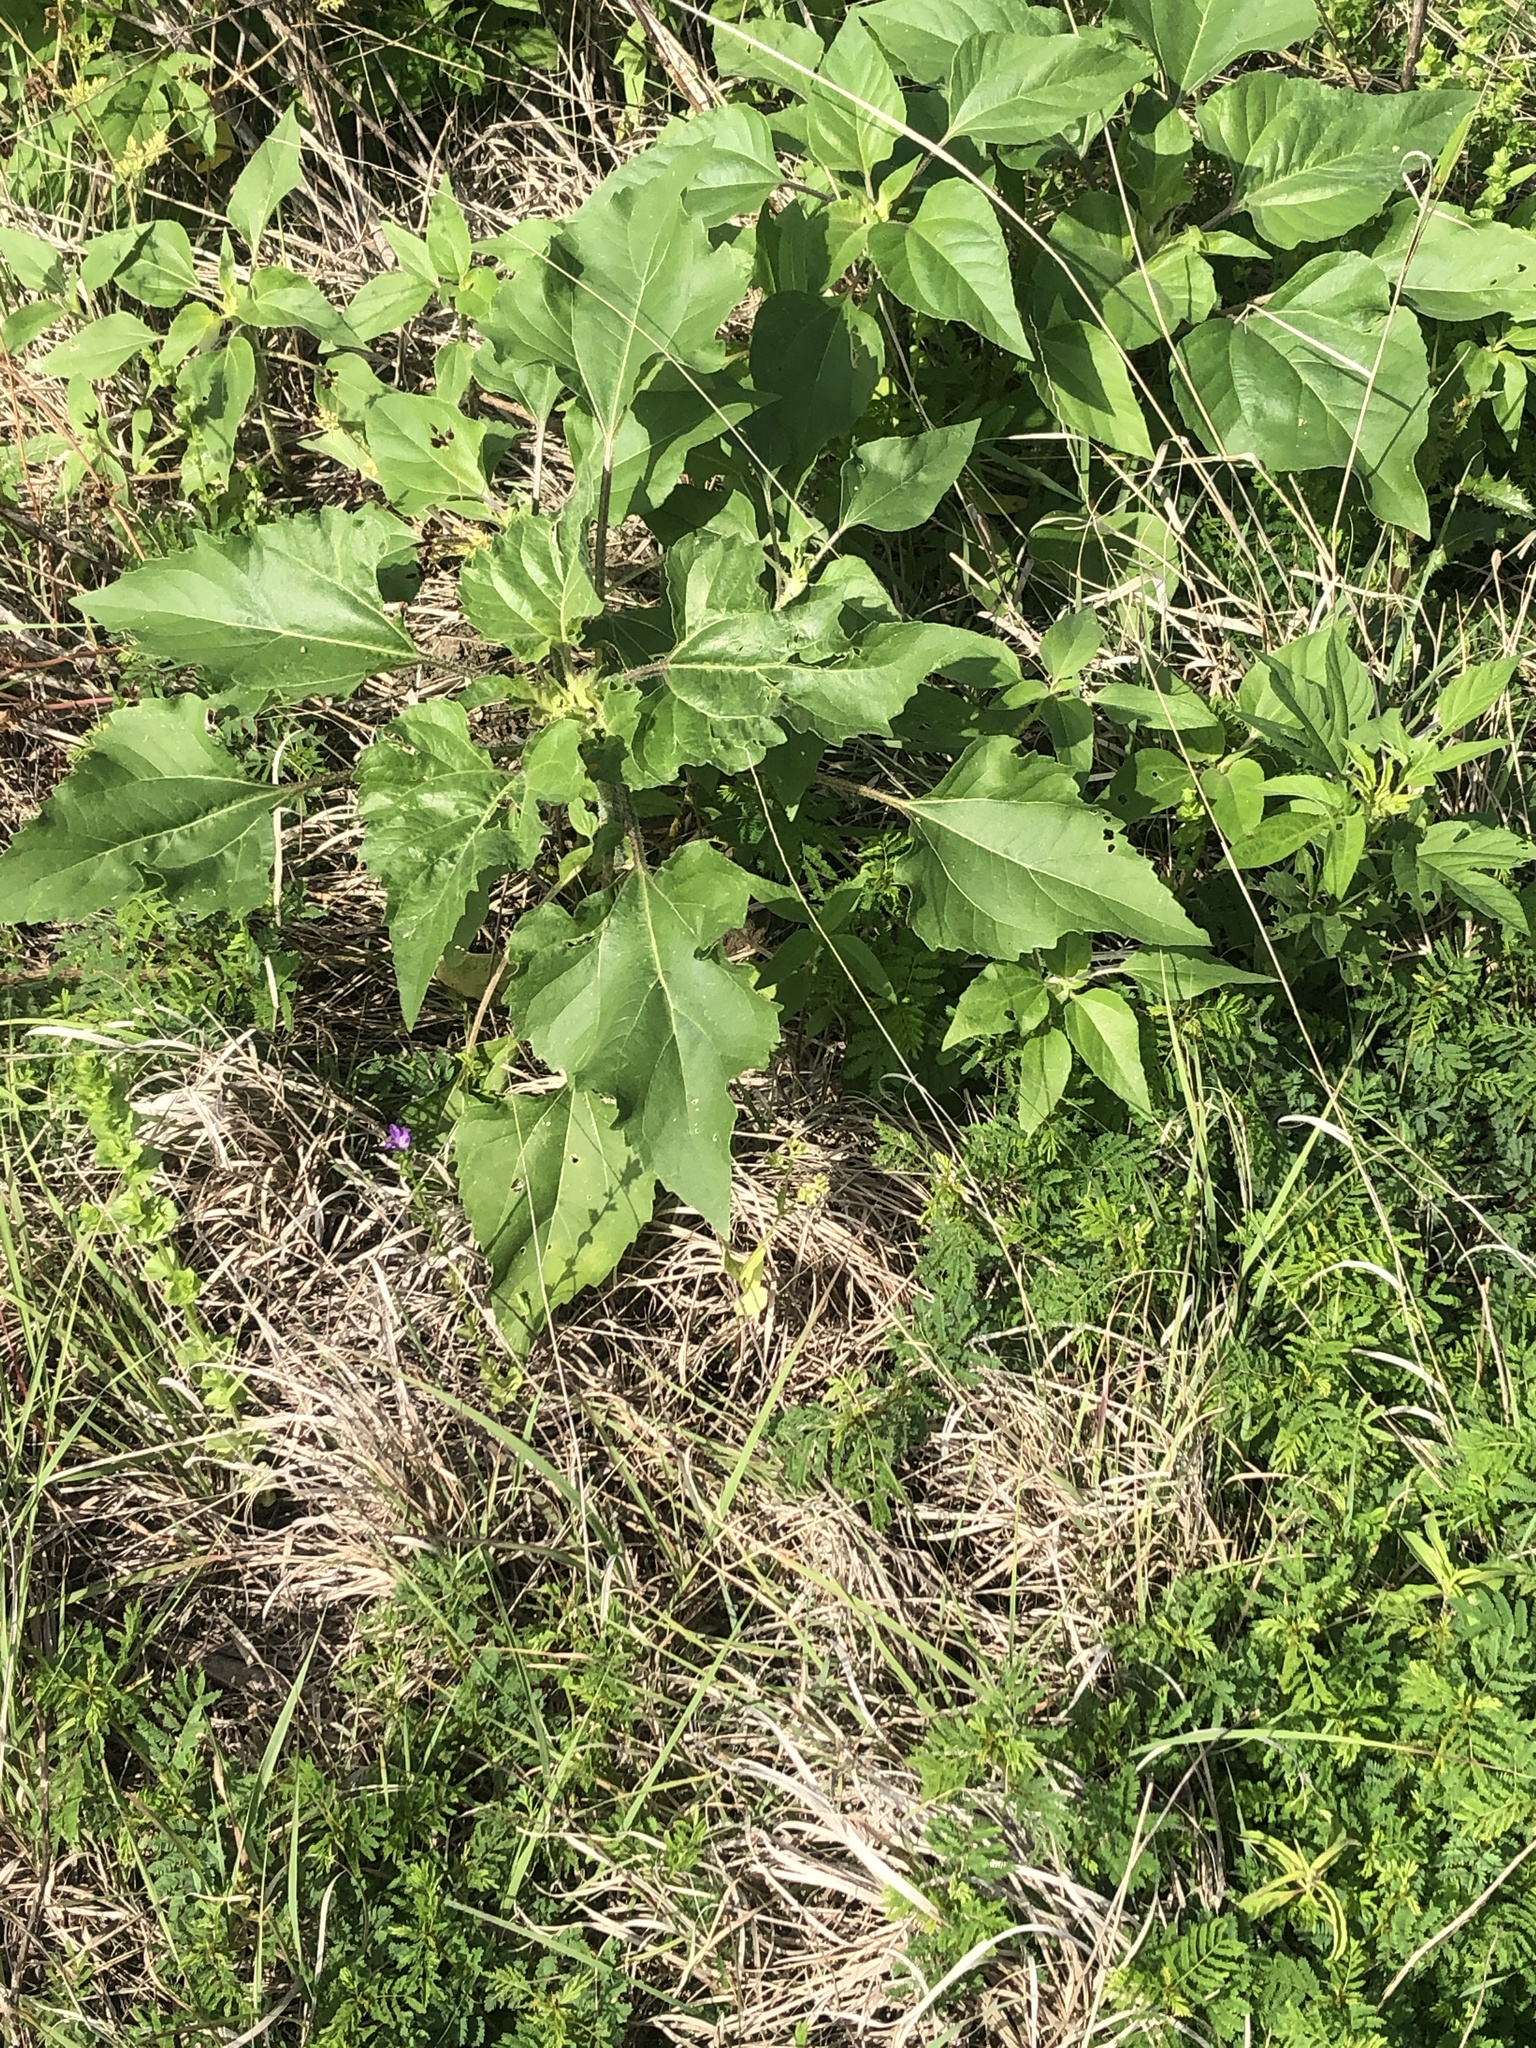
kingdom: Plantae
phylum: Tracheophyta
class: Magnoliopsida
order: Asterales
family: Asteraceae
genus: Helianthus
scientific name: Helianthus annuus
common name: Sunflower
